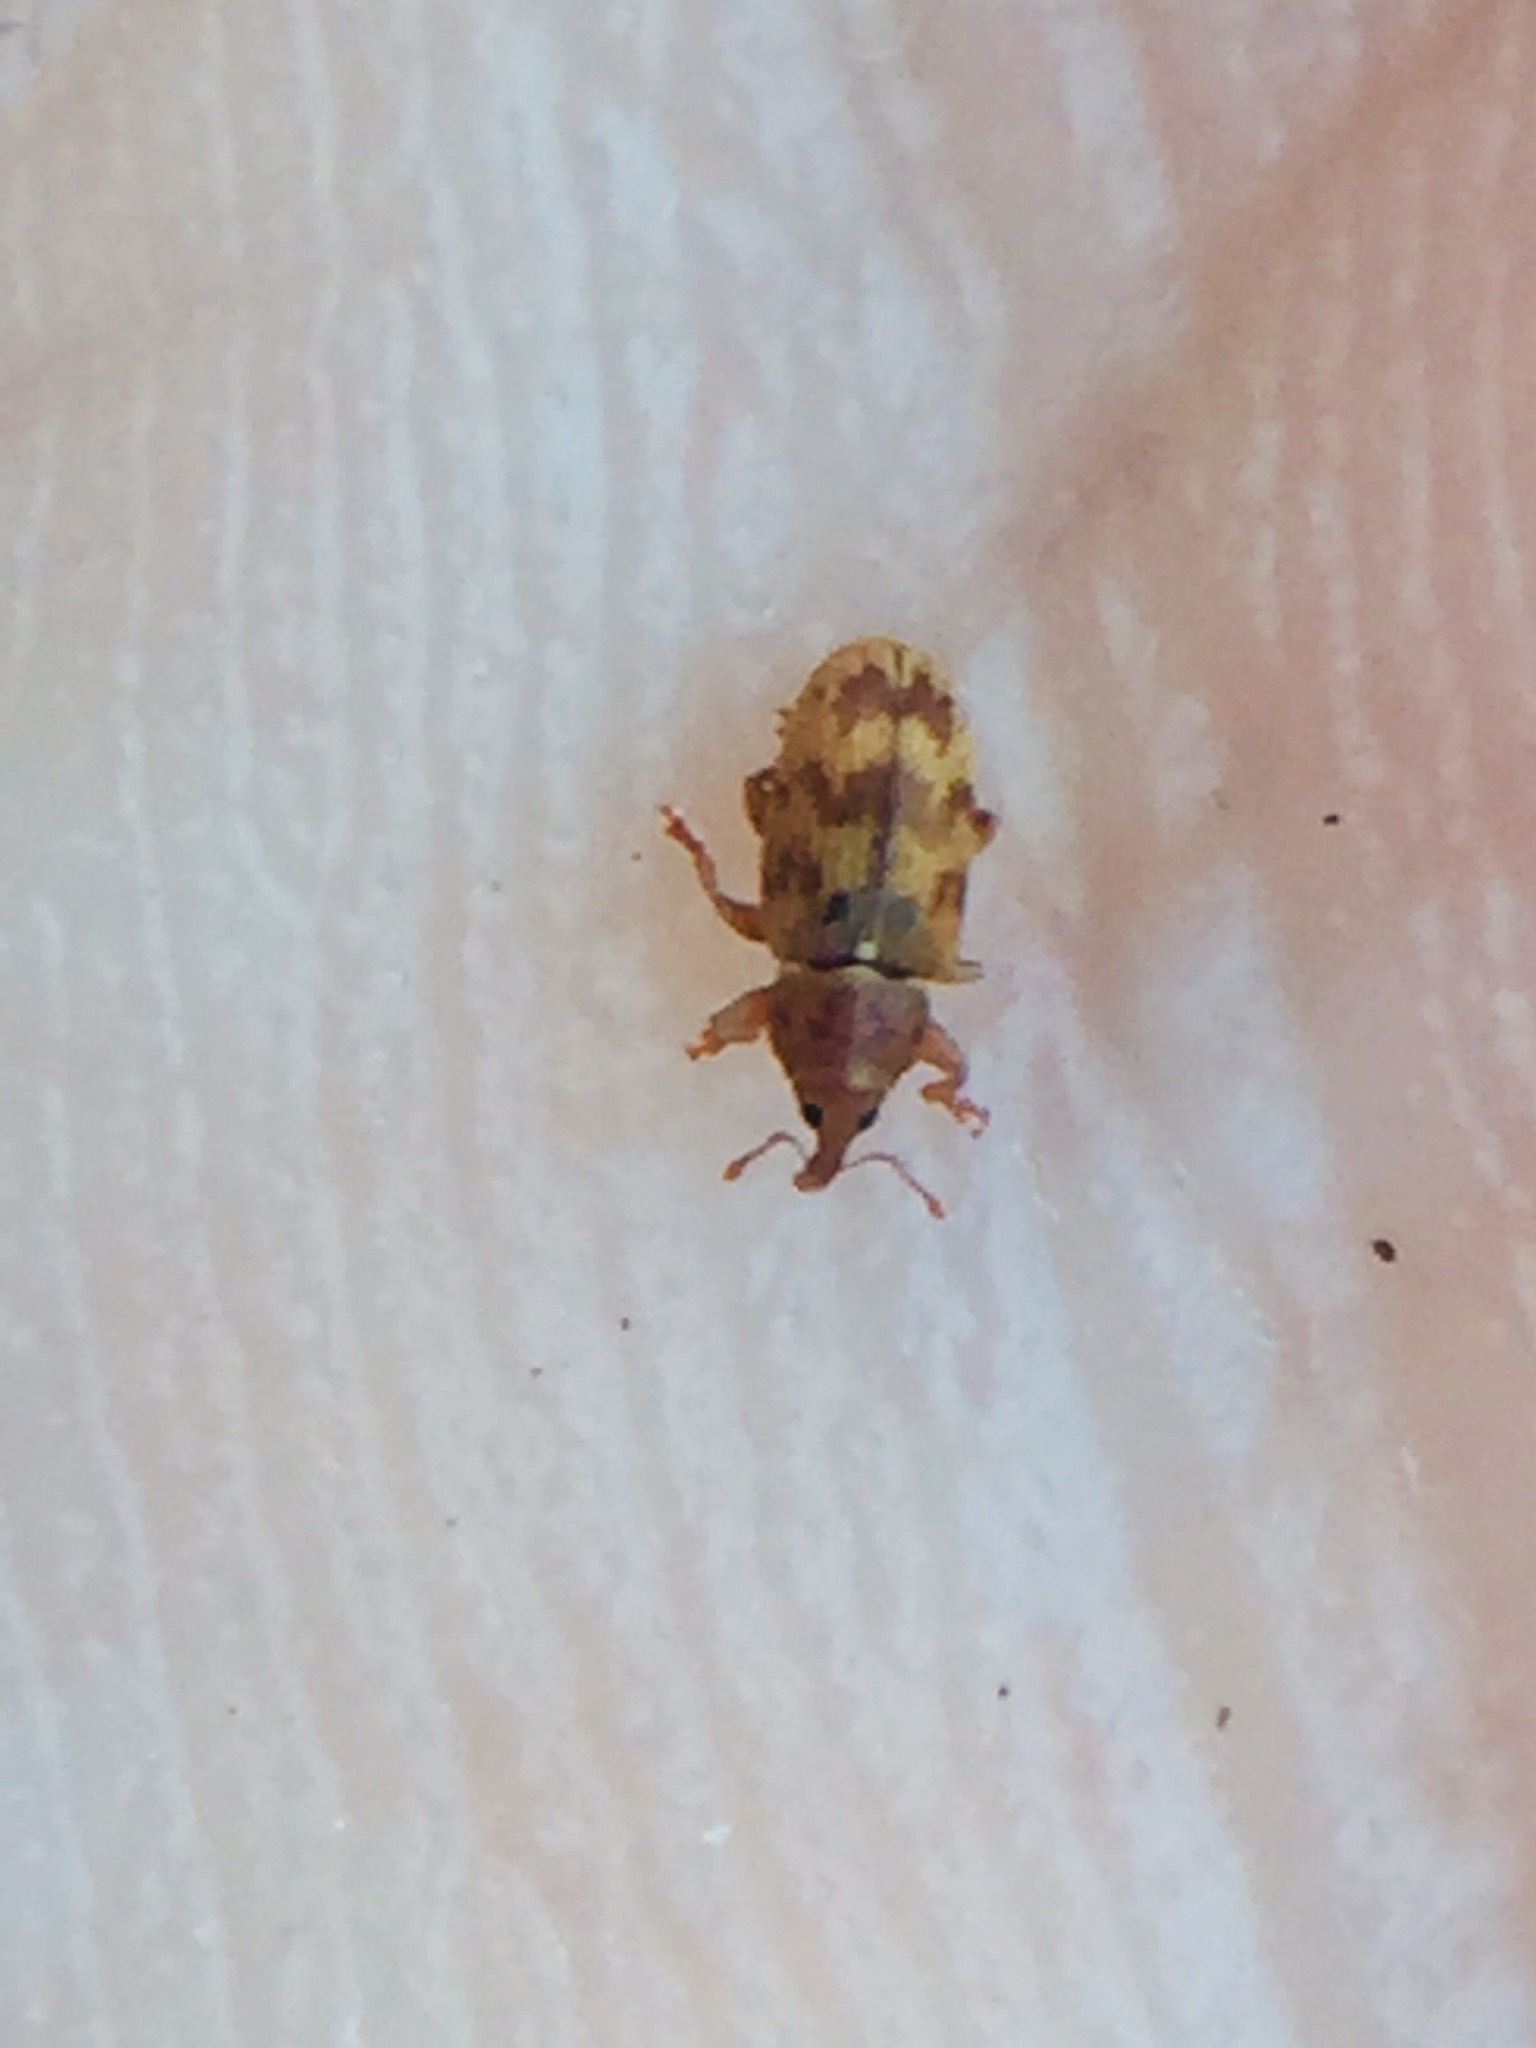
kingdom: Animalia
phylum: Arthropoda
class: Insecta
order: Coleoptera
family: Curculionidae
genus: Epamoebus
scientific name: Epamoebus ziczac
